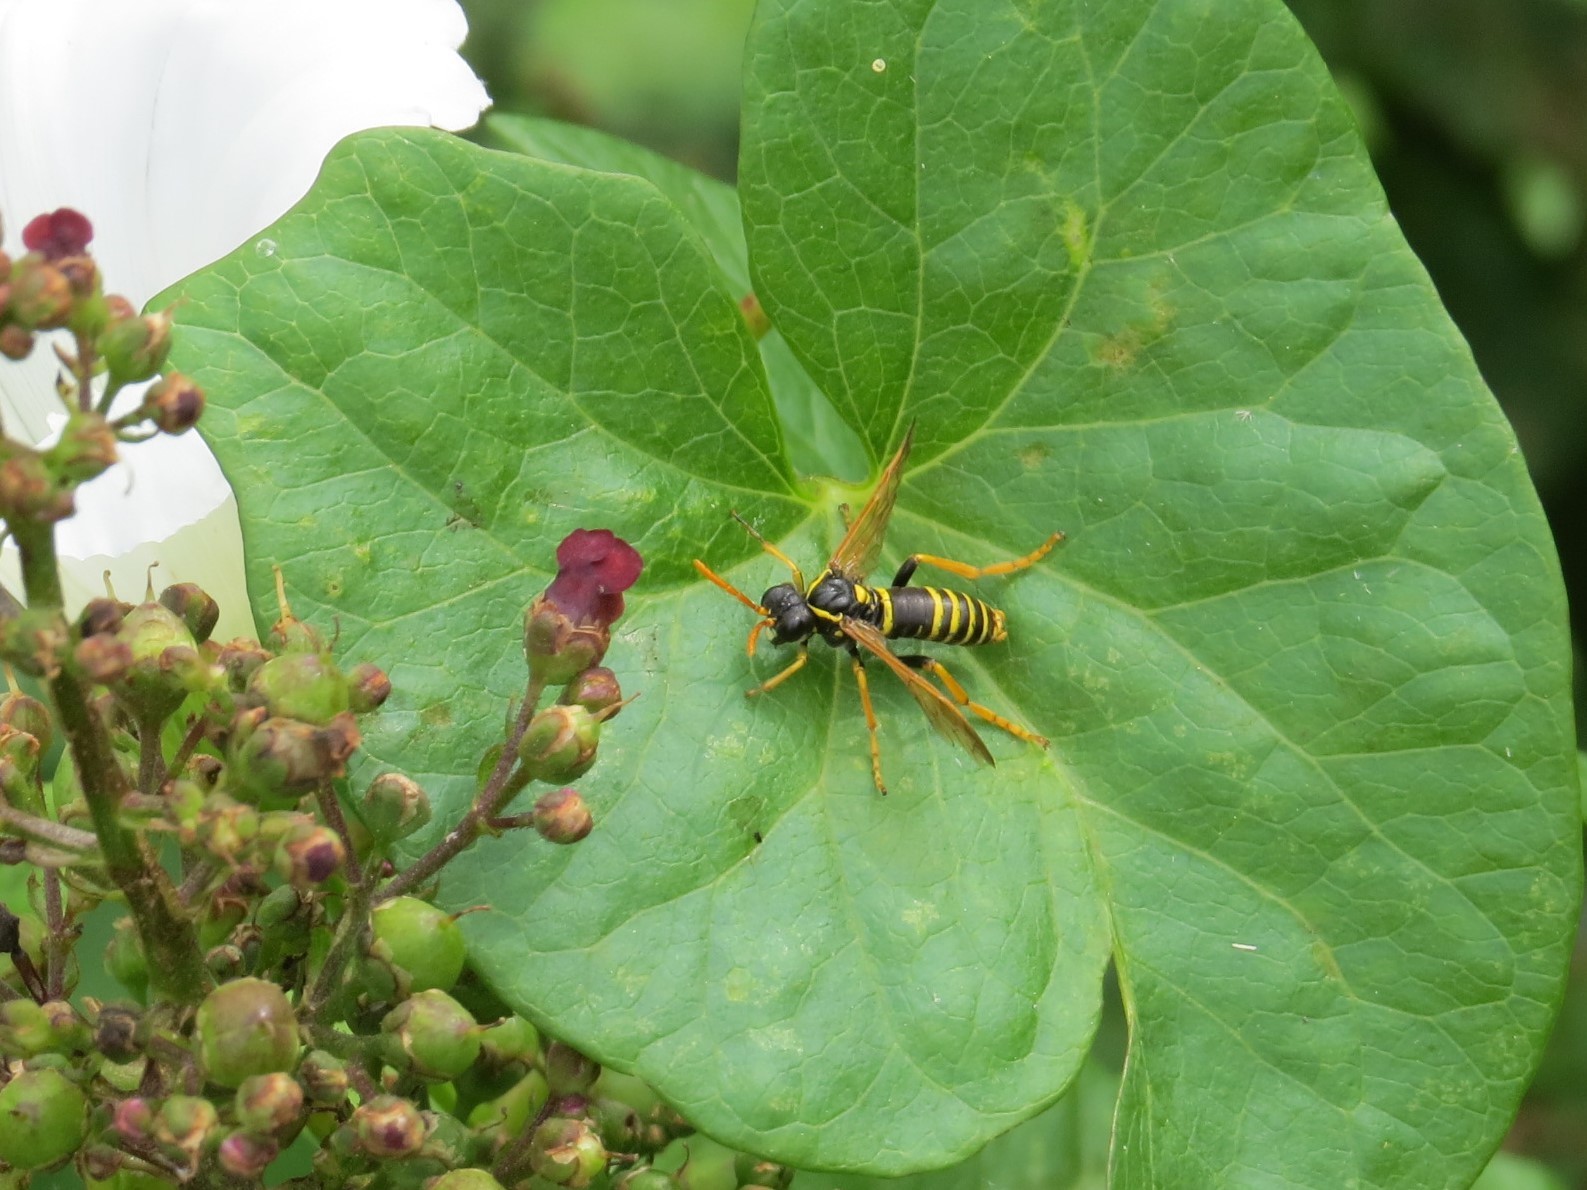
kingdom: Animalia
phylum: Arthropoda
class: Insecta
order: Hymenoptera
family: Tenthredinidae
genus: Tenthredo
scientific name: Tenthredo scrophulariae
